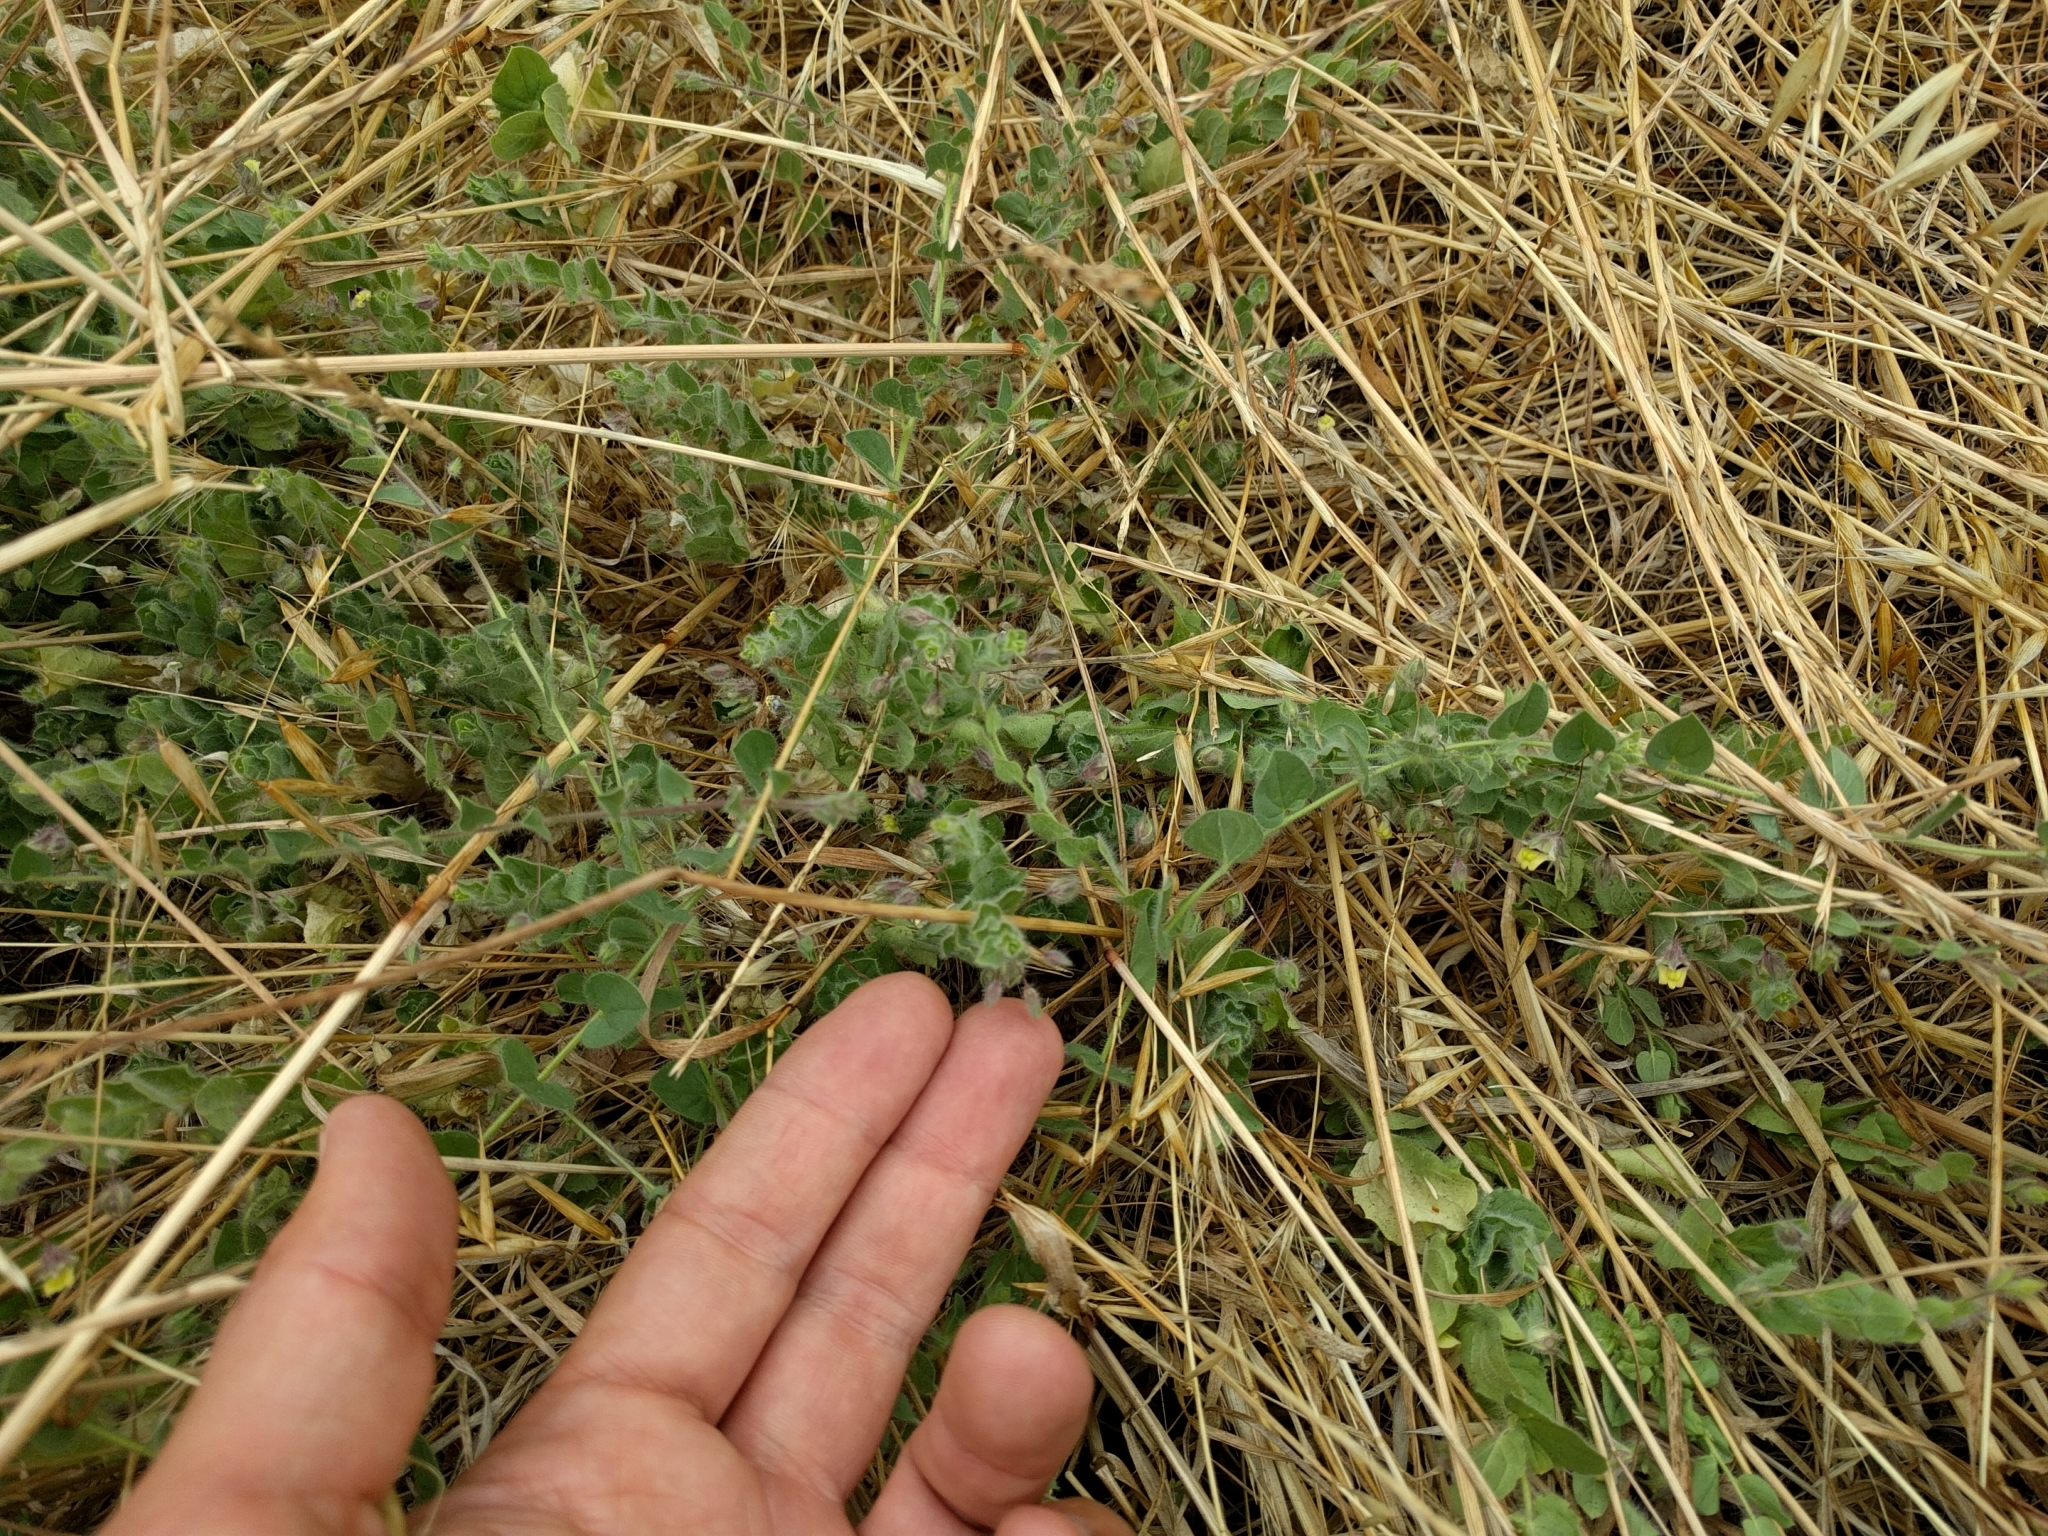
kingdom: Plantae
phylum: Tracheophyta
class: Magnoliopsida
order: Lamiales
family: Plantaginaceae
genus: Kickxia
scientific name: Kickxia elatine
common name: Sharp-leaved fluellen
